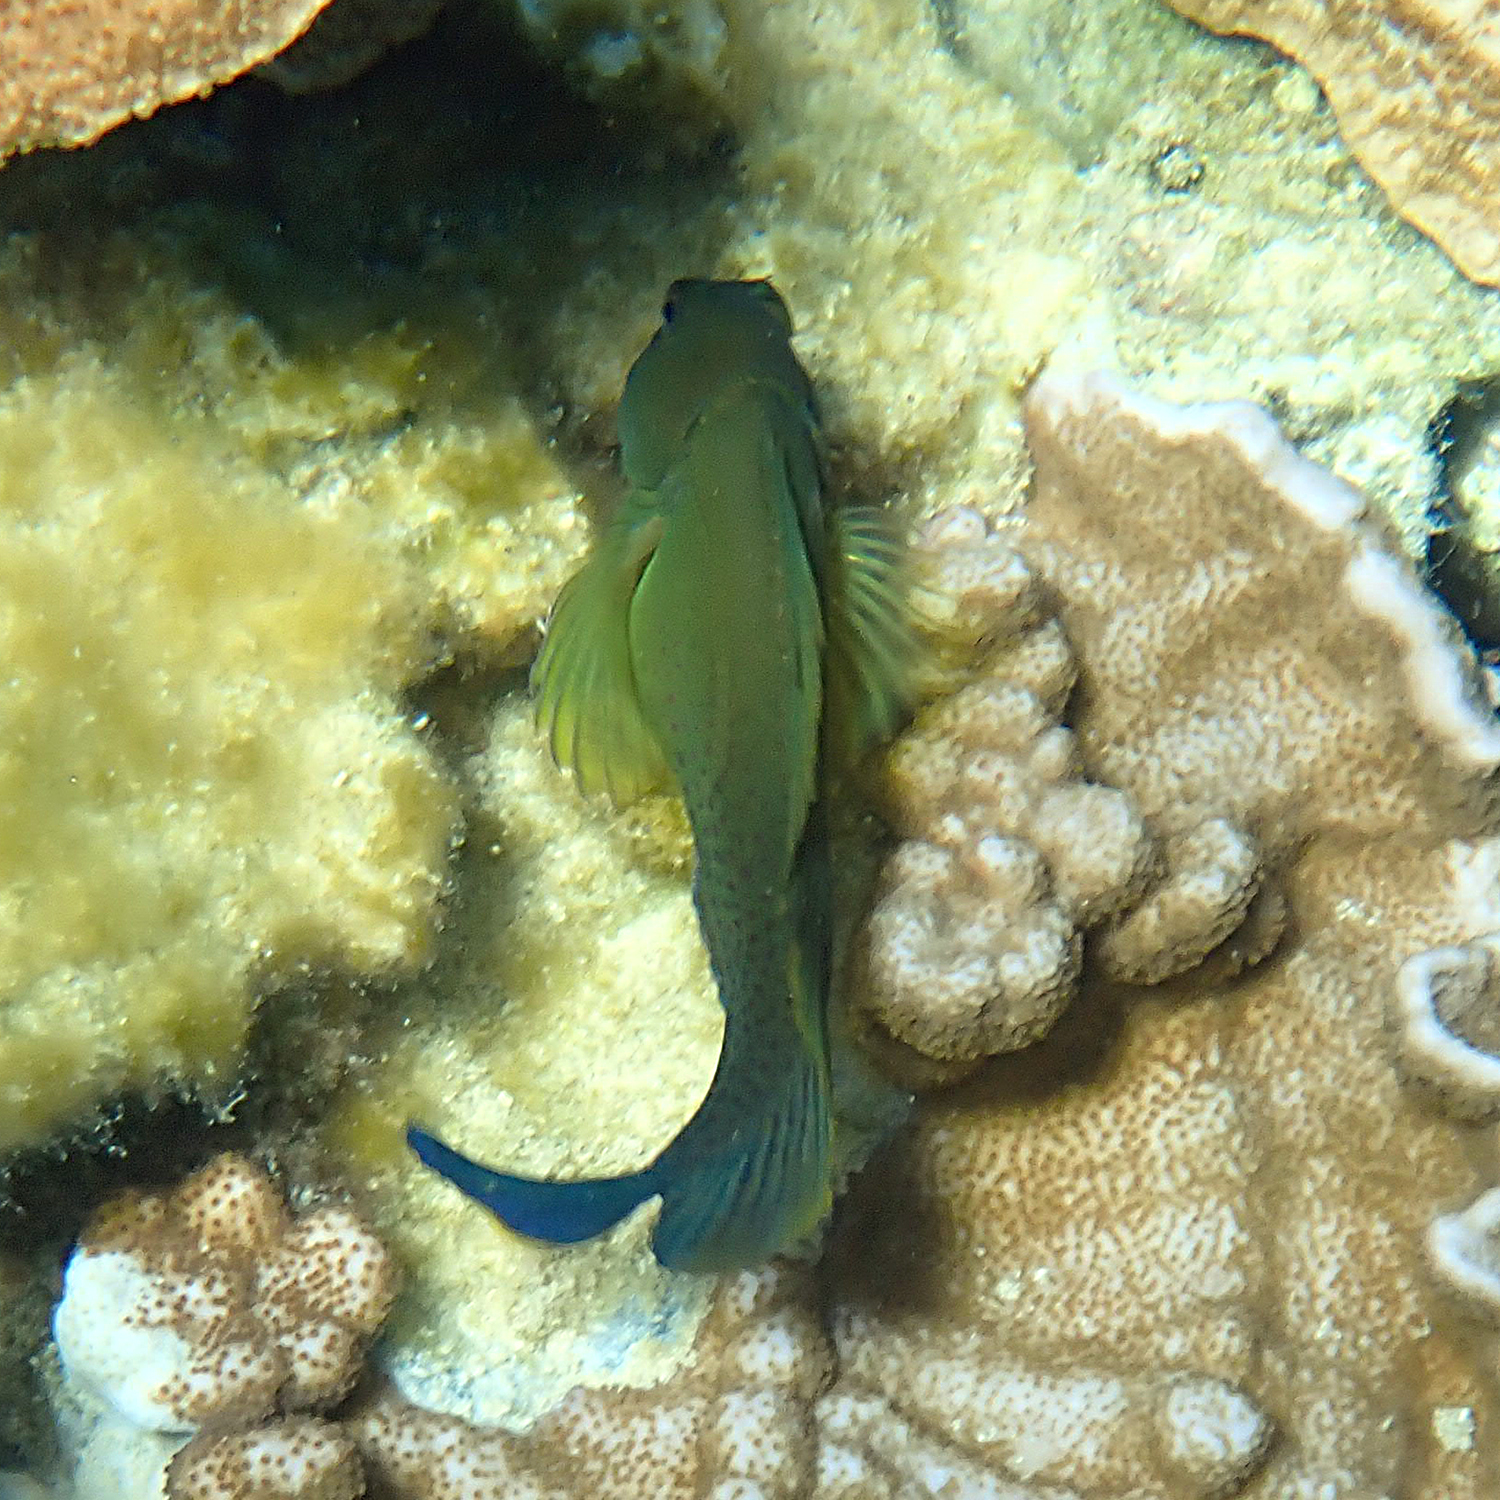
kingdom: Animalia
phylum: Chordata
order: Perciformes
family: Blenniidae
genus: Cirripectes
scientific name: Cirripectes chelomatus
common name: Lady musgrave blenny
